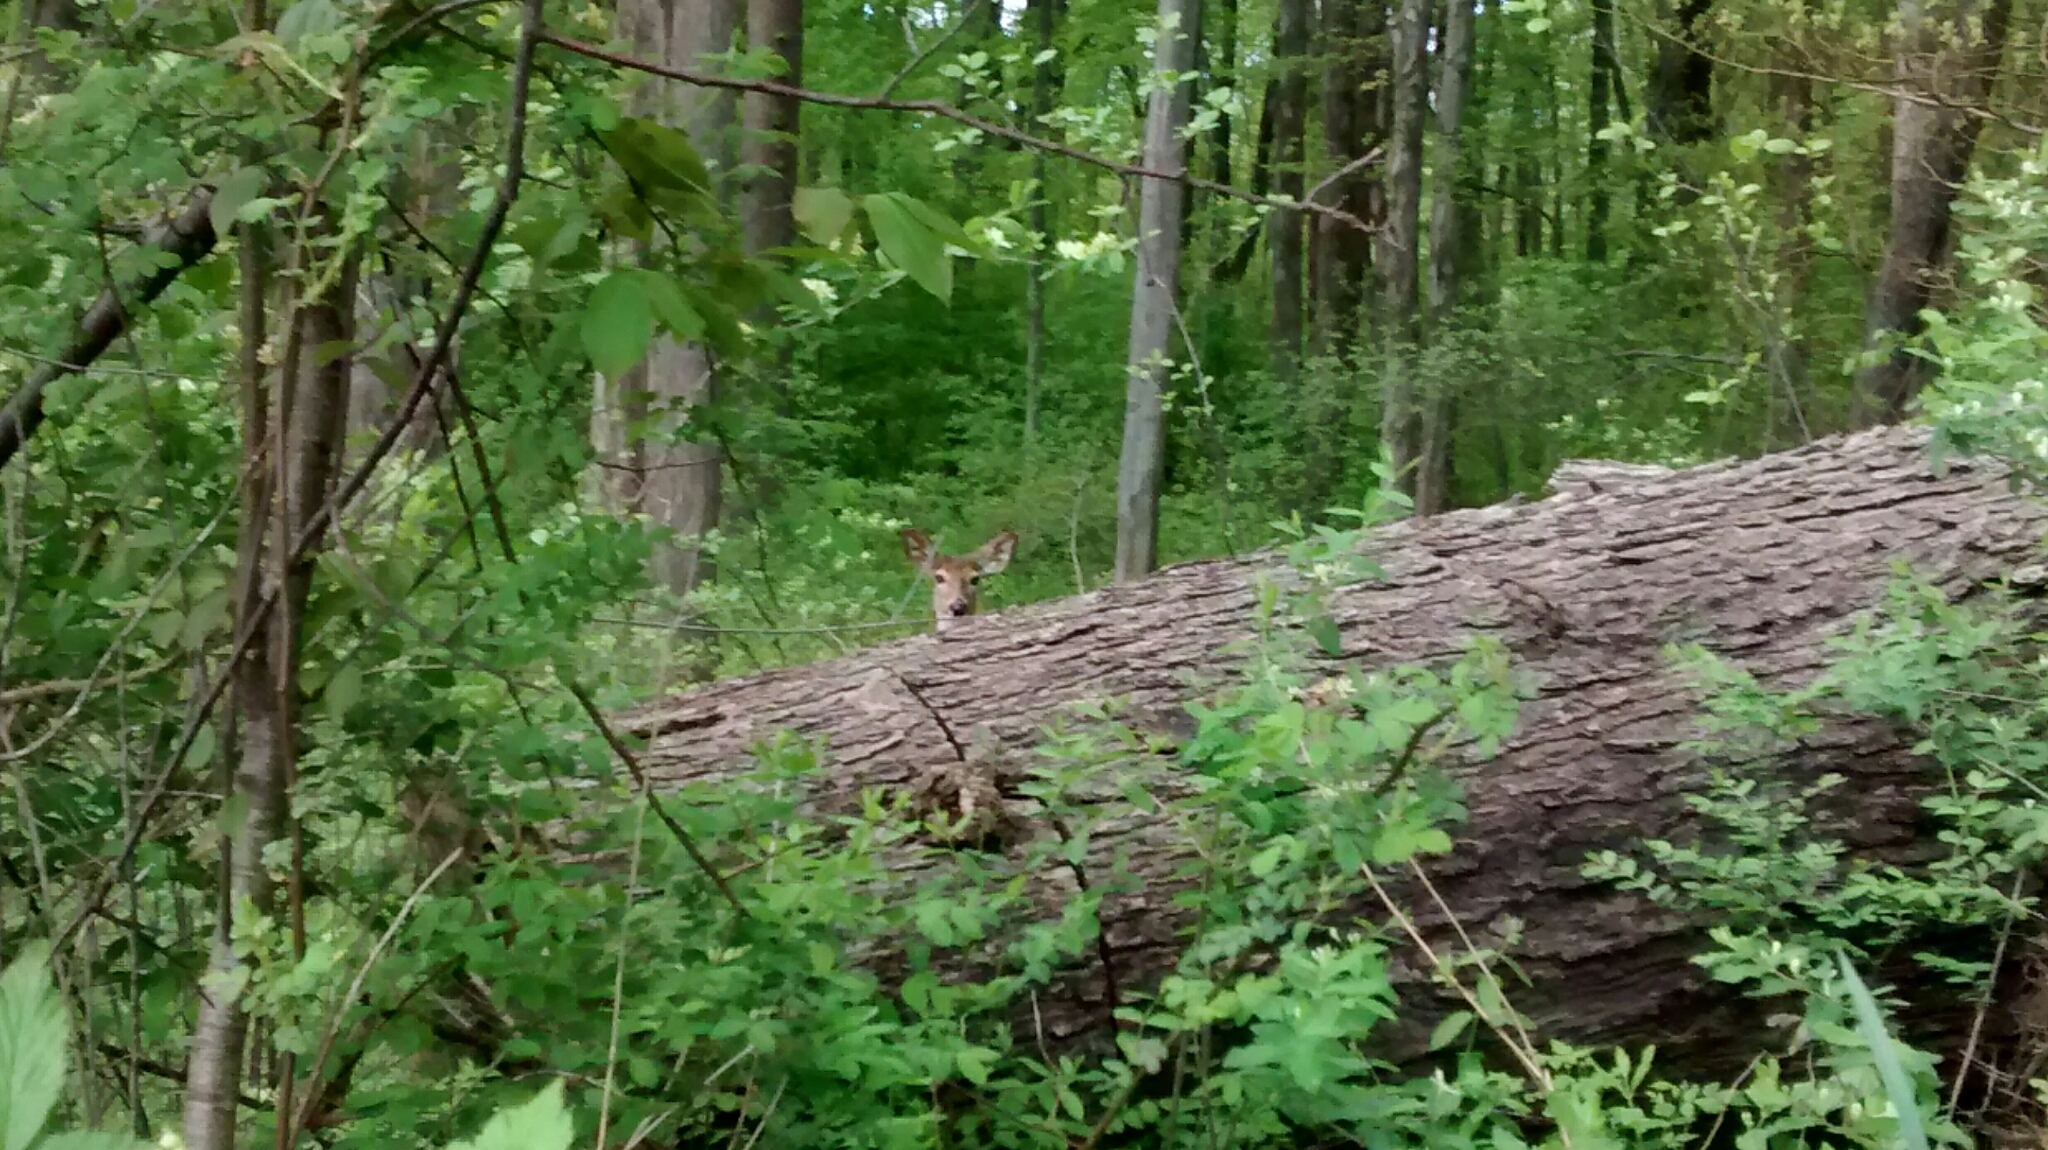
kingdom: Animalia
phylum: Chordata
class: Mammalia
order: Artiodactyla
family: Cervidae
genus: Odocoileus
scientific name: Odocoileus virginianus
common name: White-tailed deer
